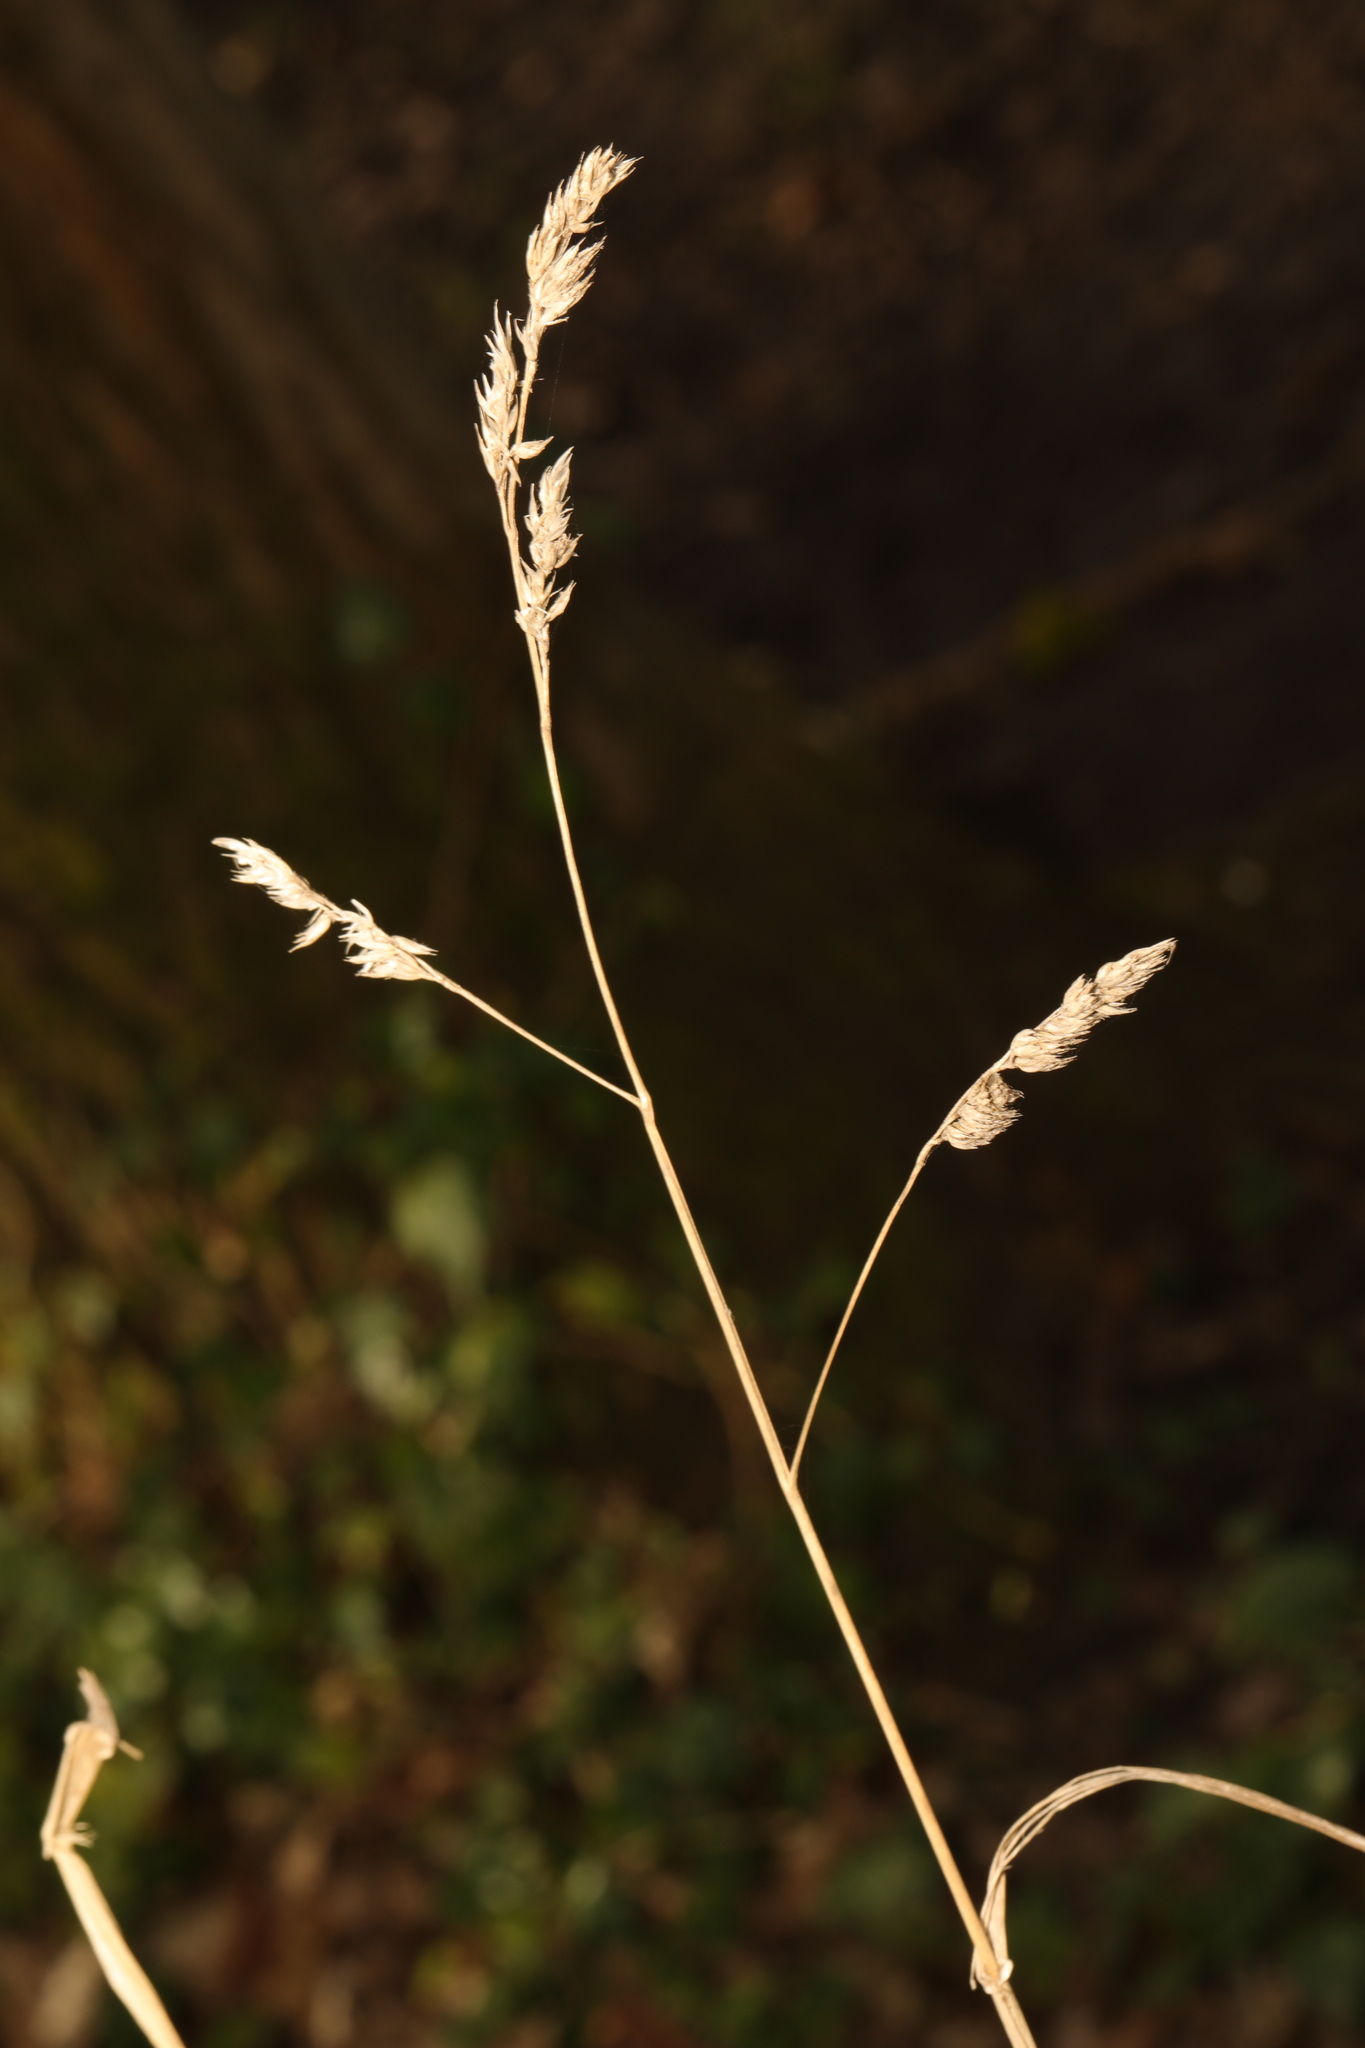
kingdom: Plantae
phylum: Tracheophyta
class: Liliopsida
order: Poales
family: Poaceae
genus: Dactylis
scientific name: Dactylis glomerata
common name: Orchardgrass
